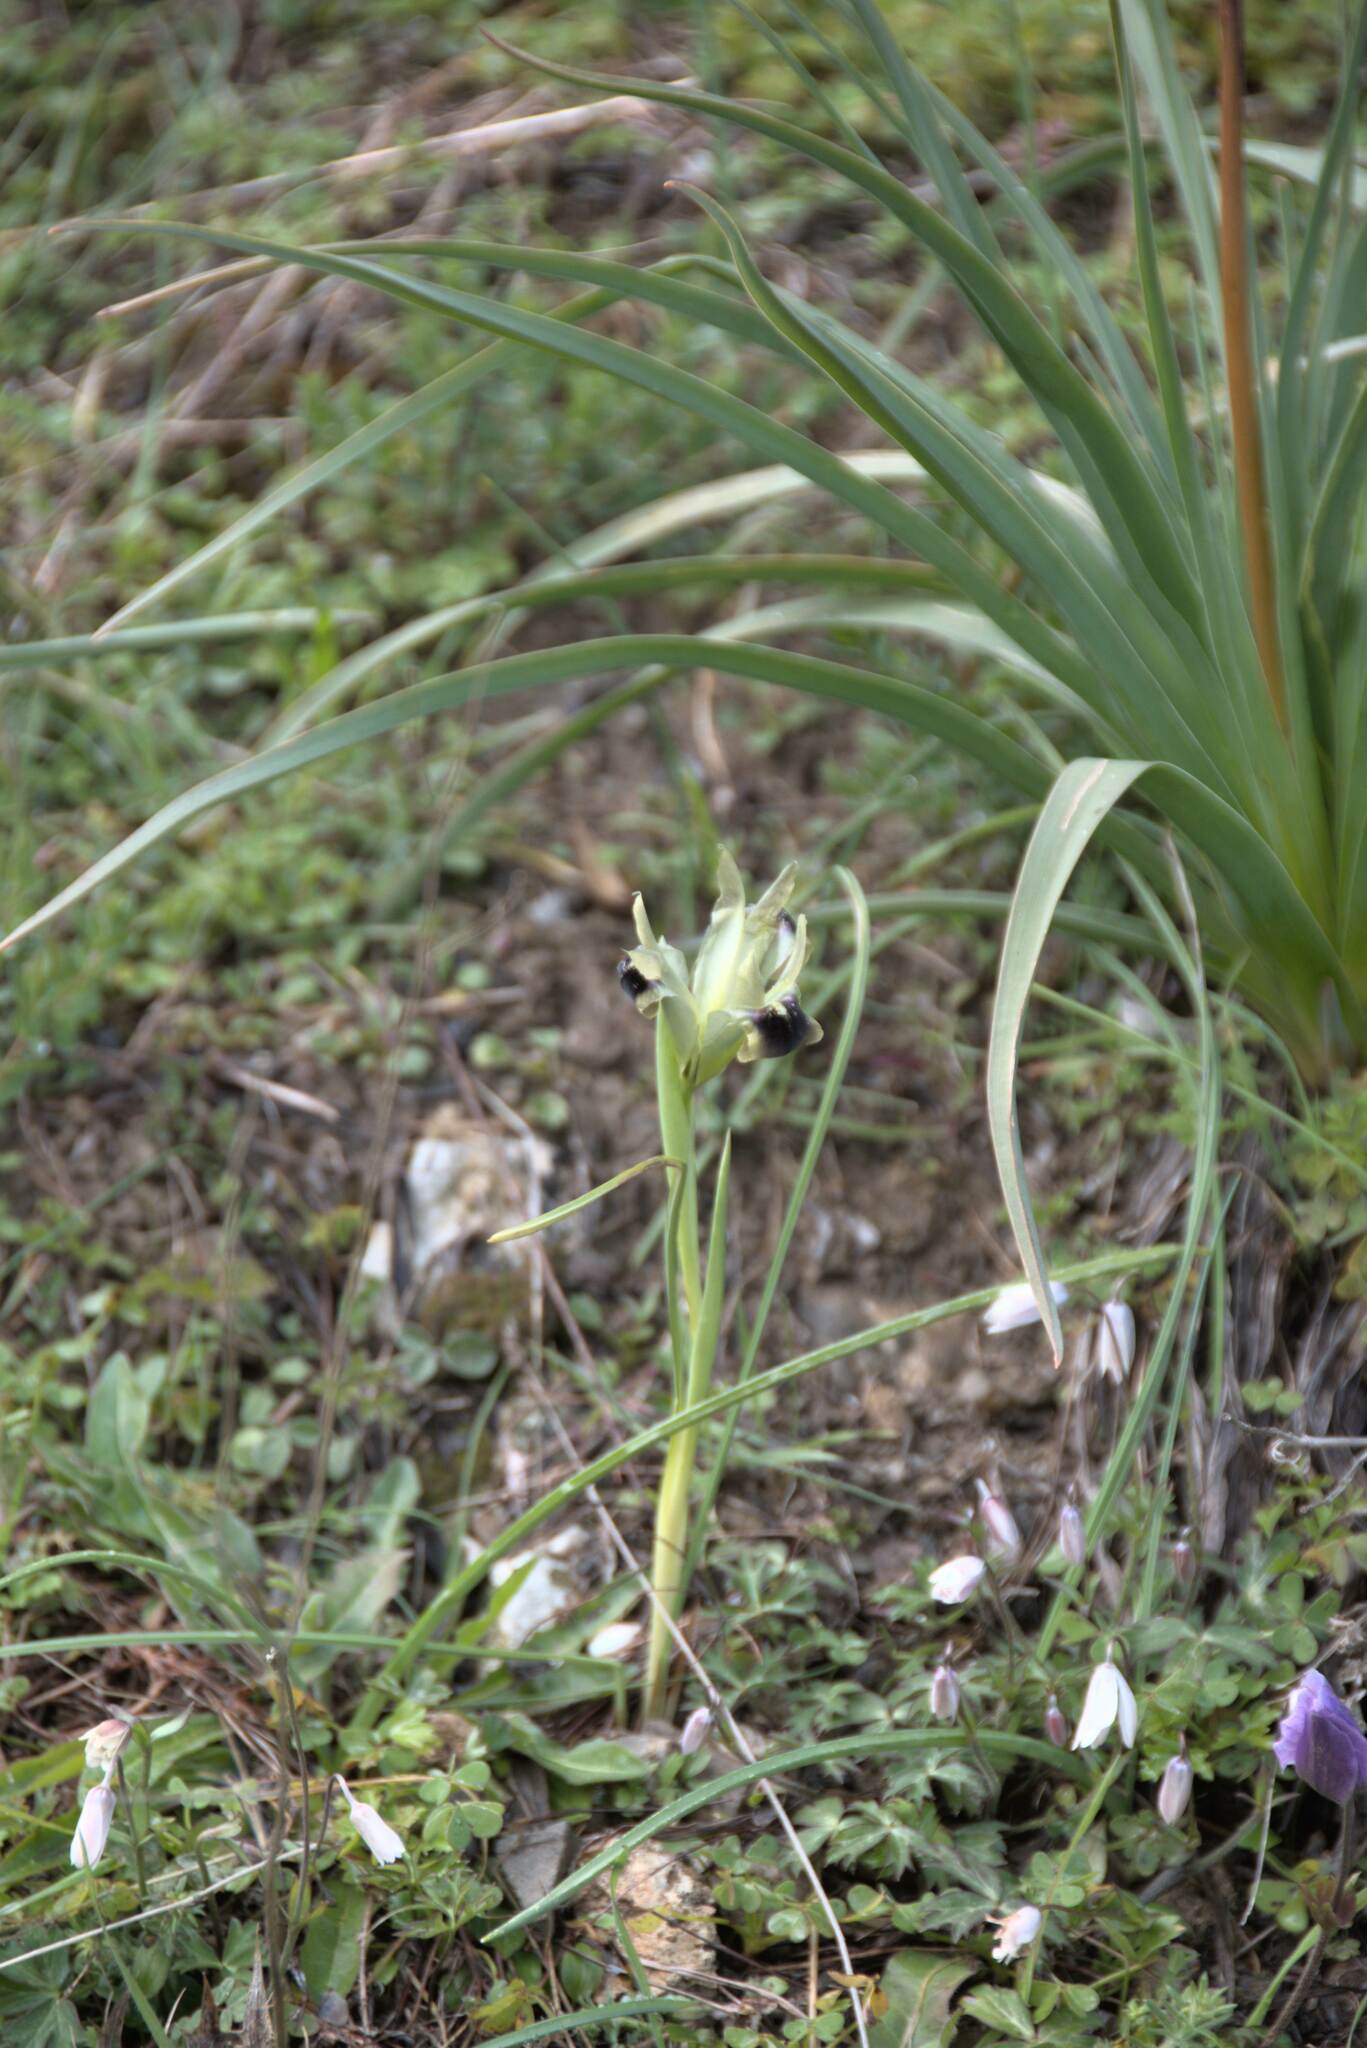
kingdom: Plantae
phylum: Tracheophyta
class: Liliopsida
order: Asparagales
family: Iridaceae
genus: Iris
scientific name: Iris tuberosa
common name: Snake's-head iris
